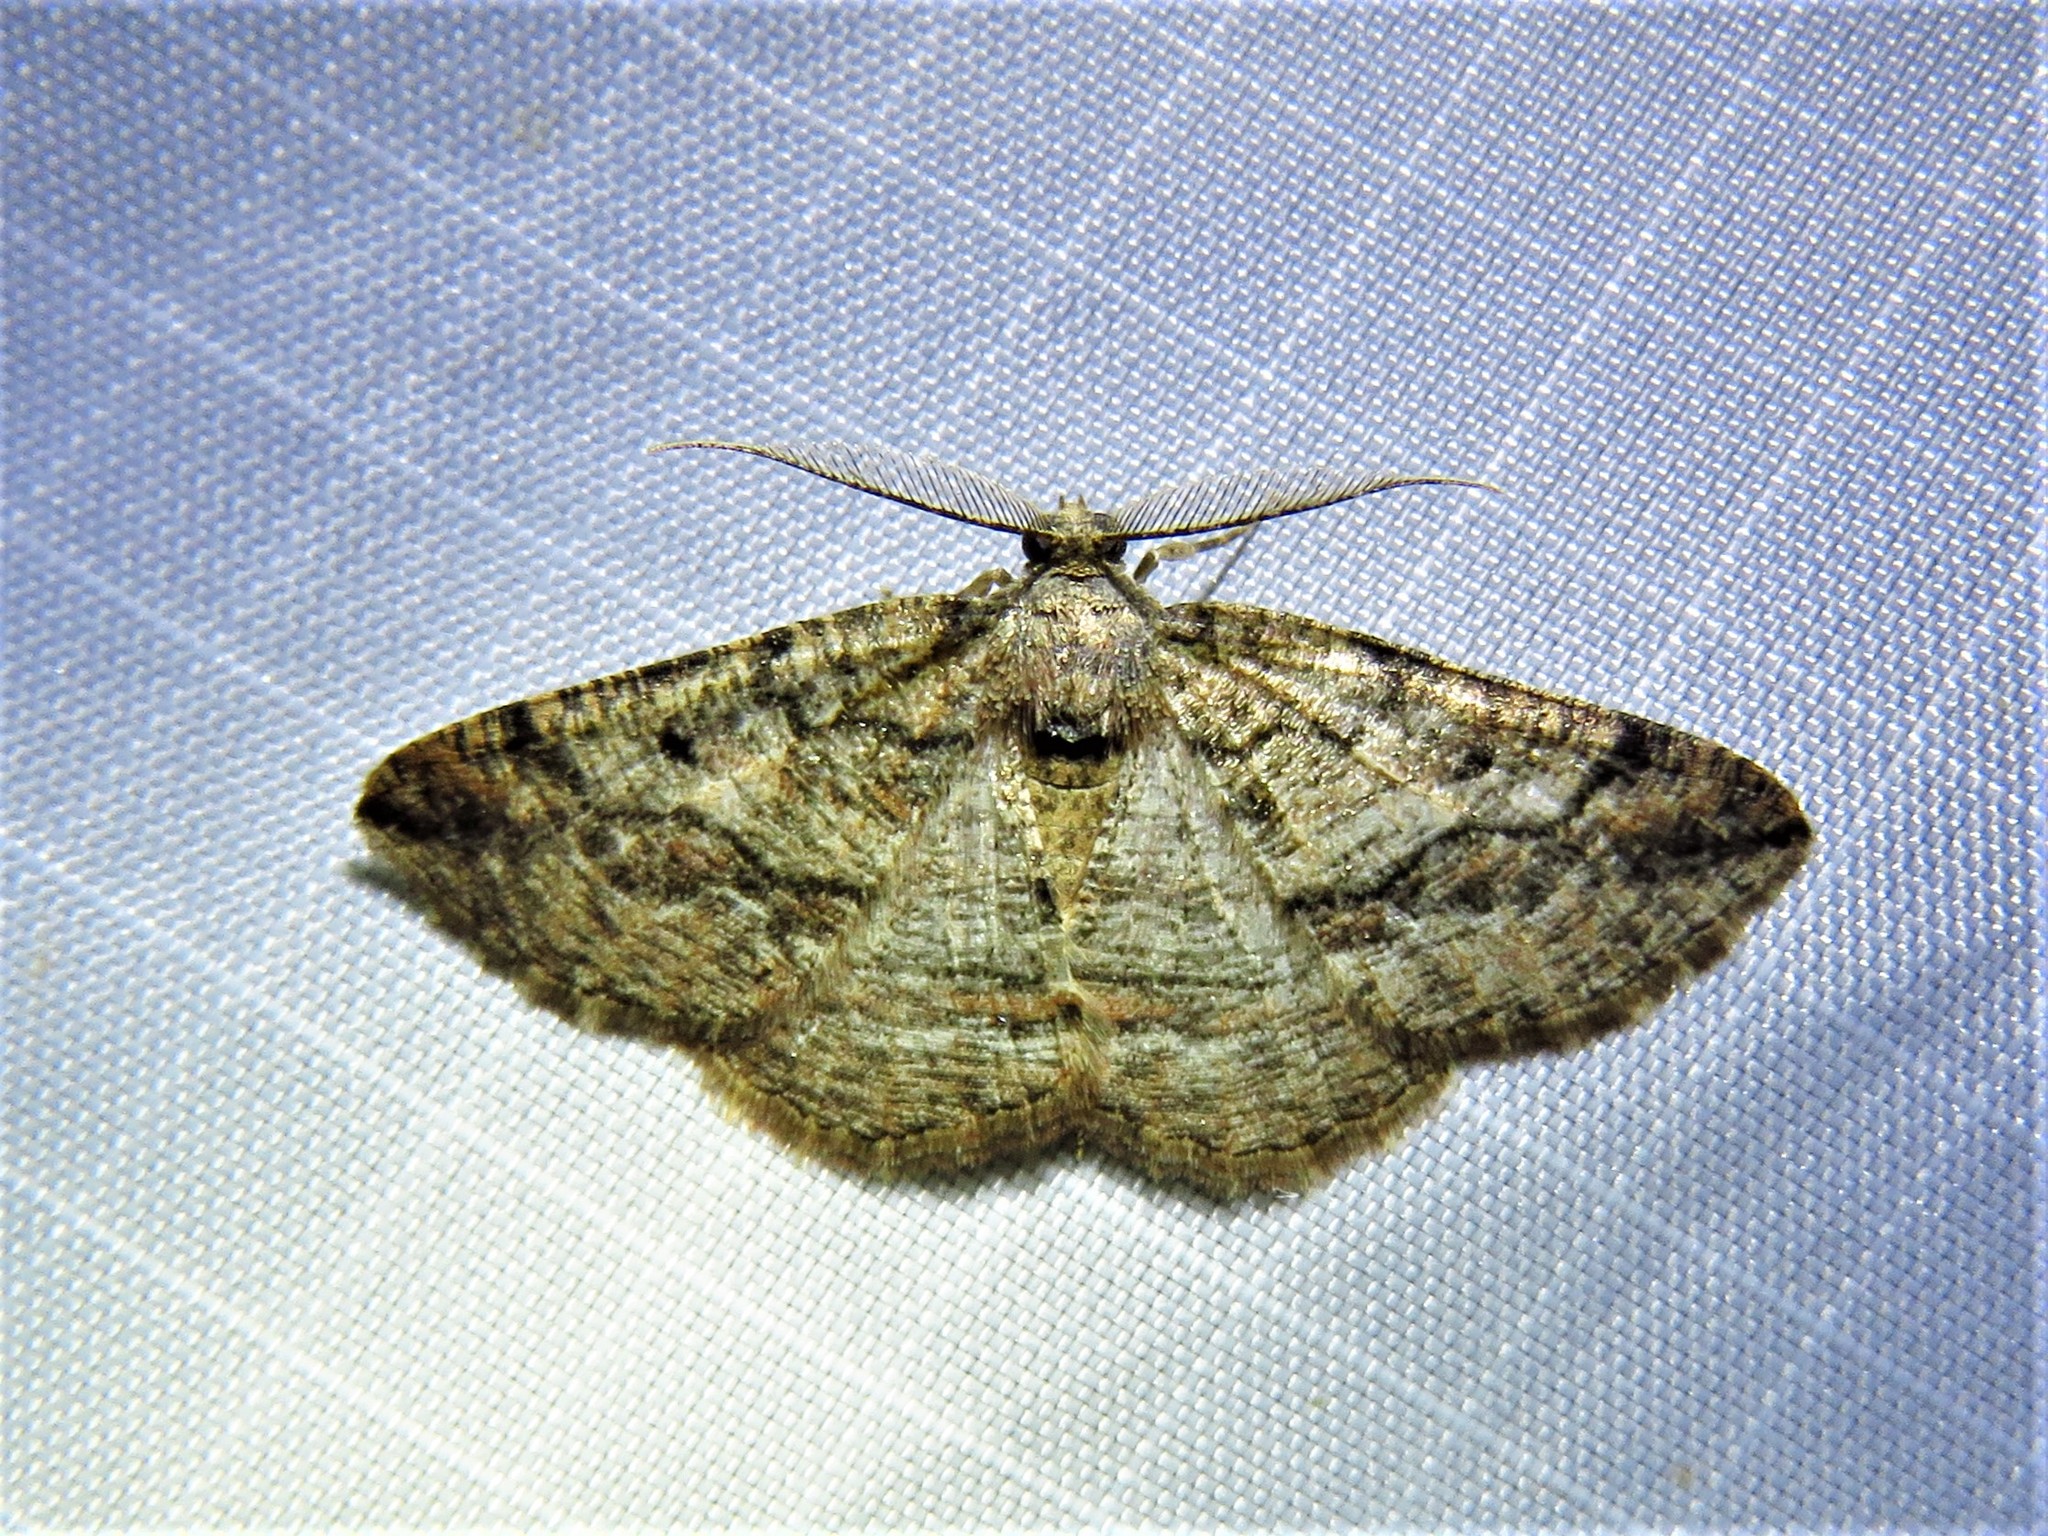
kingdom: Animalia
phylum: Arthropoda
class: Insecta
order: Lepidoptera
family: Geometridae
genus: Pterospoda
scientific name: Pterospoda nigrescens
